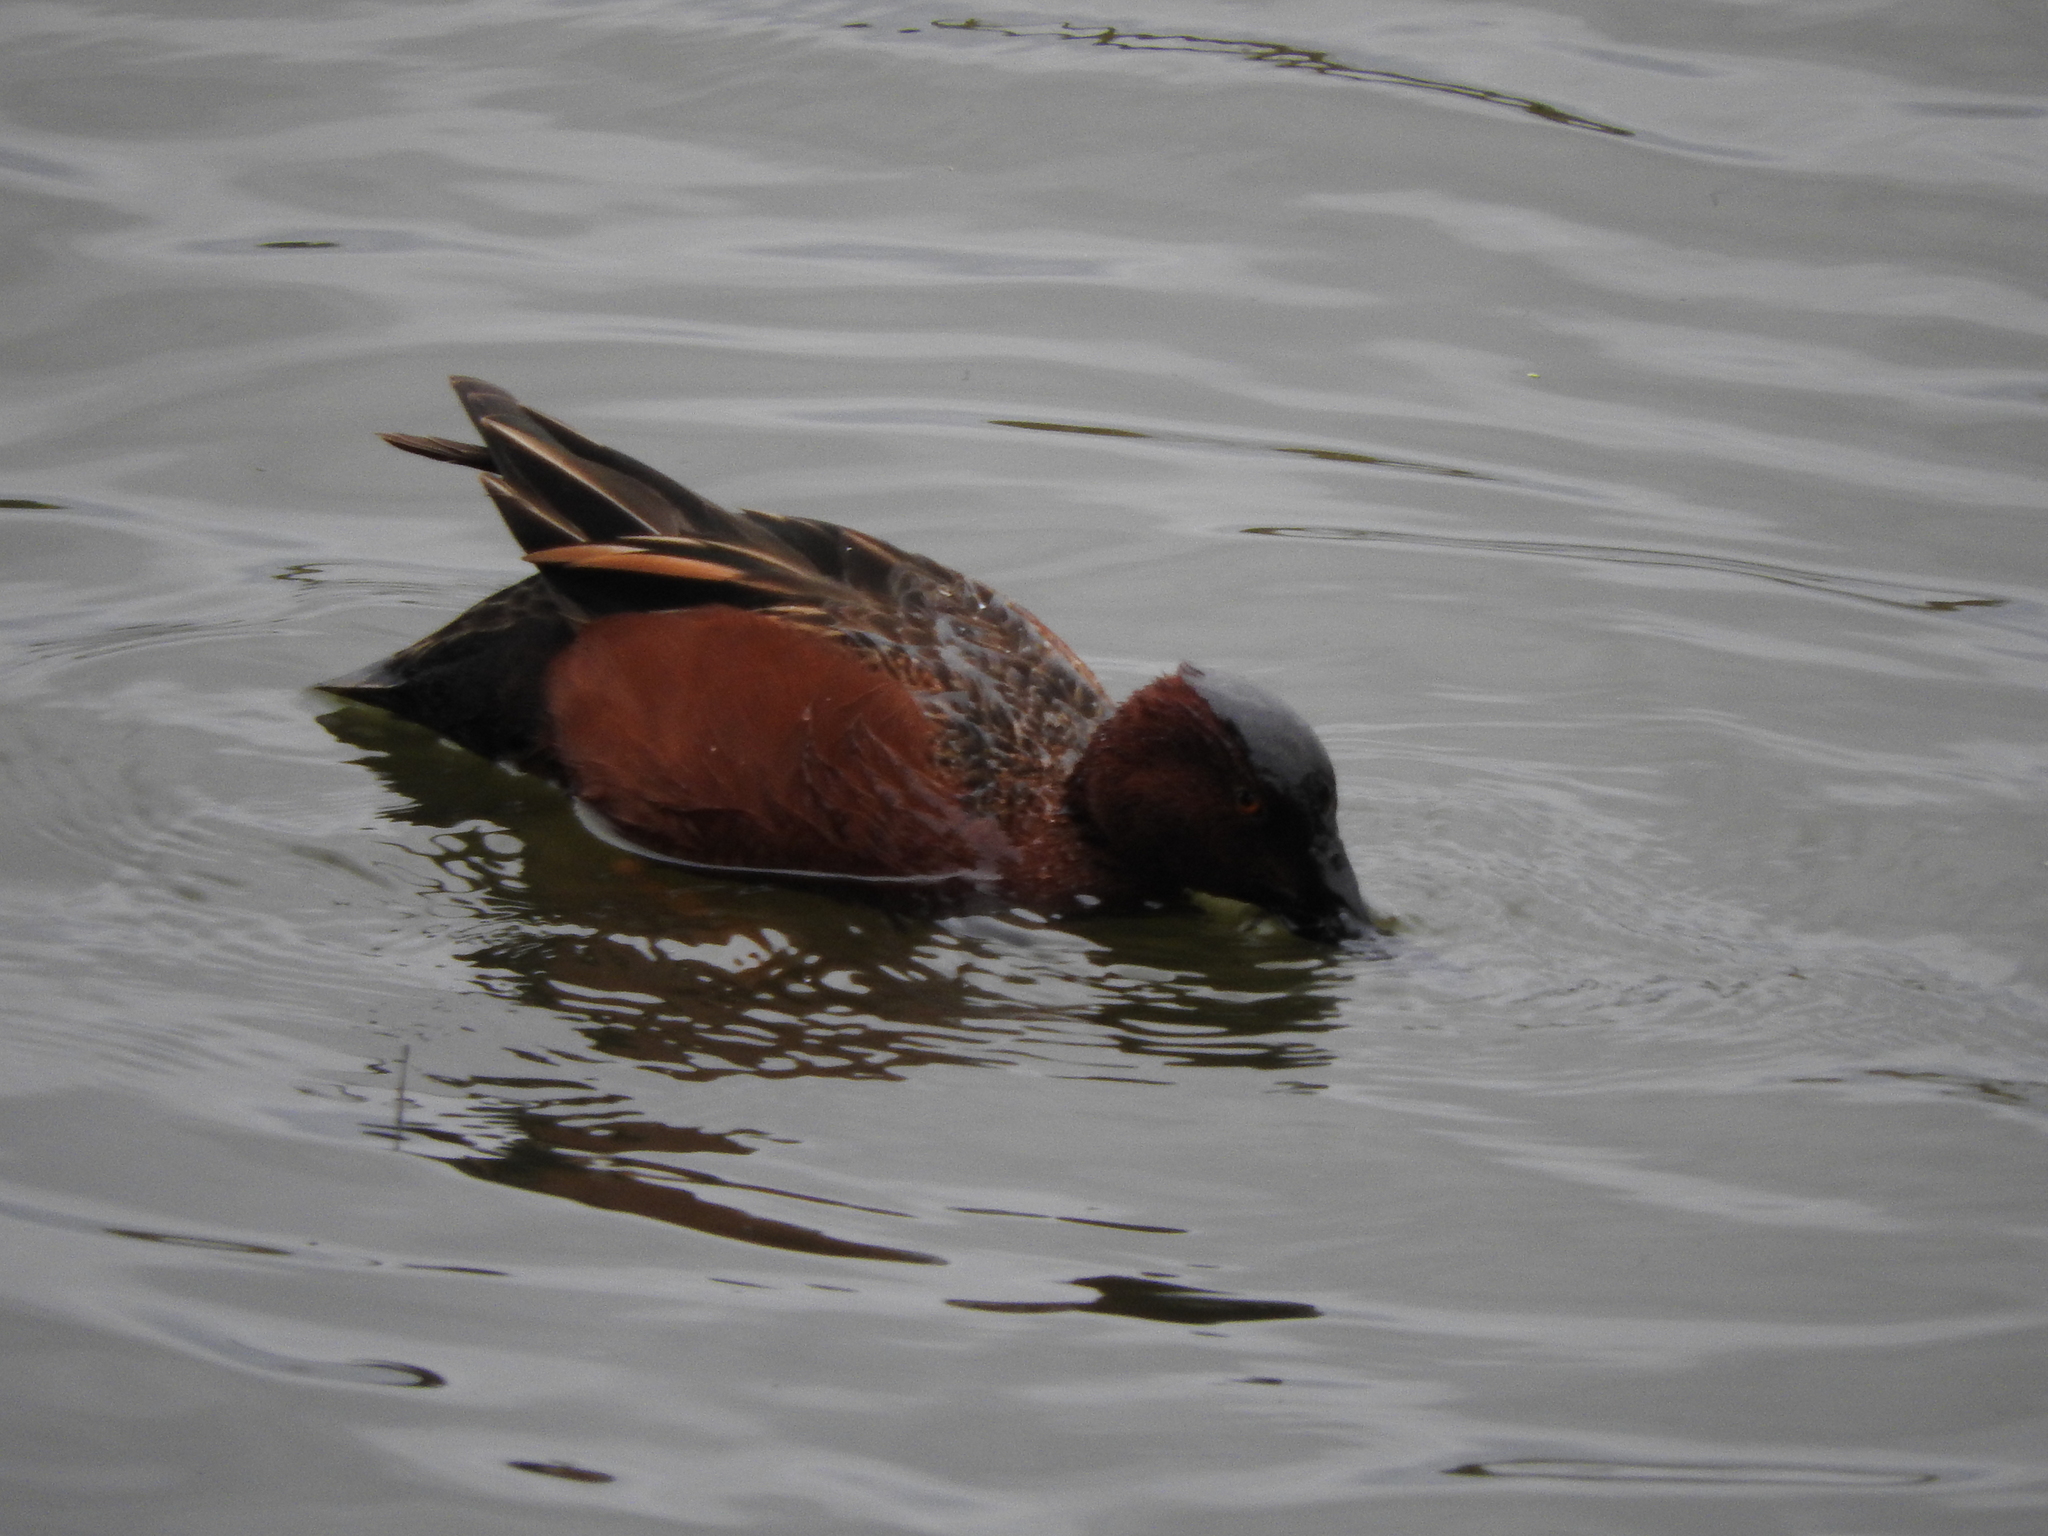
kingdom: Animalia
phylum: Chordata
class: Aves
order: Anseriformes
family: Anatidae
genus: Spatula
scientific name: Spatula cyanoptera
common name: Cinnamon teal
